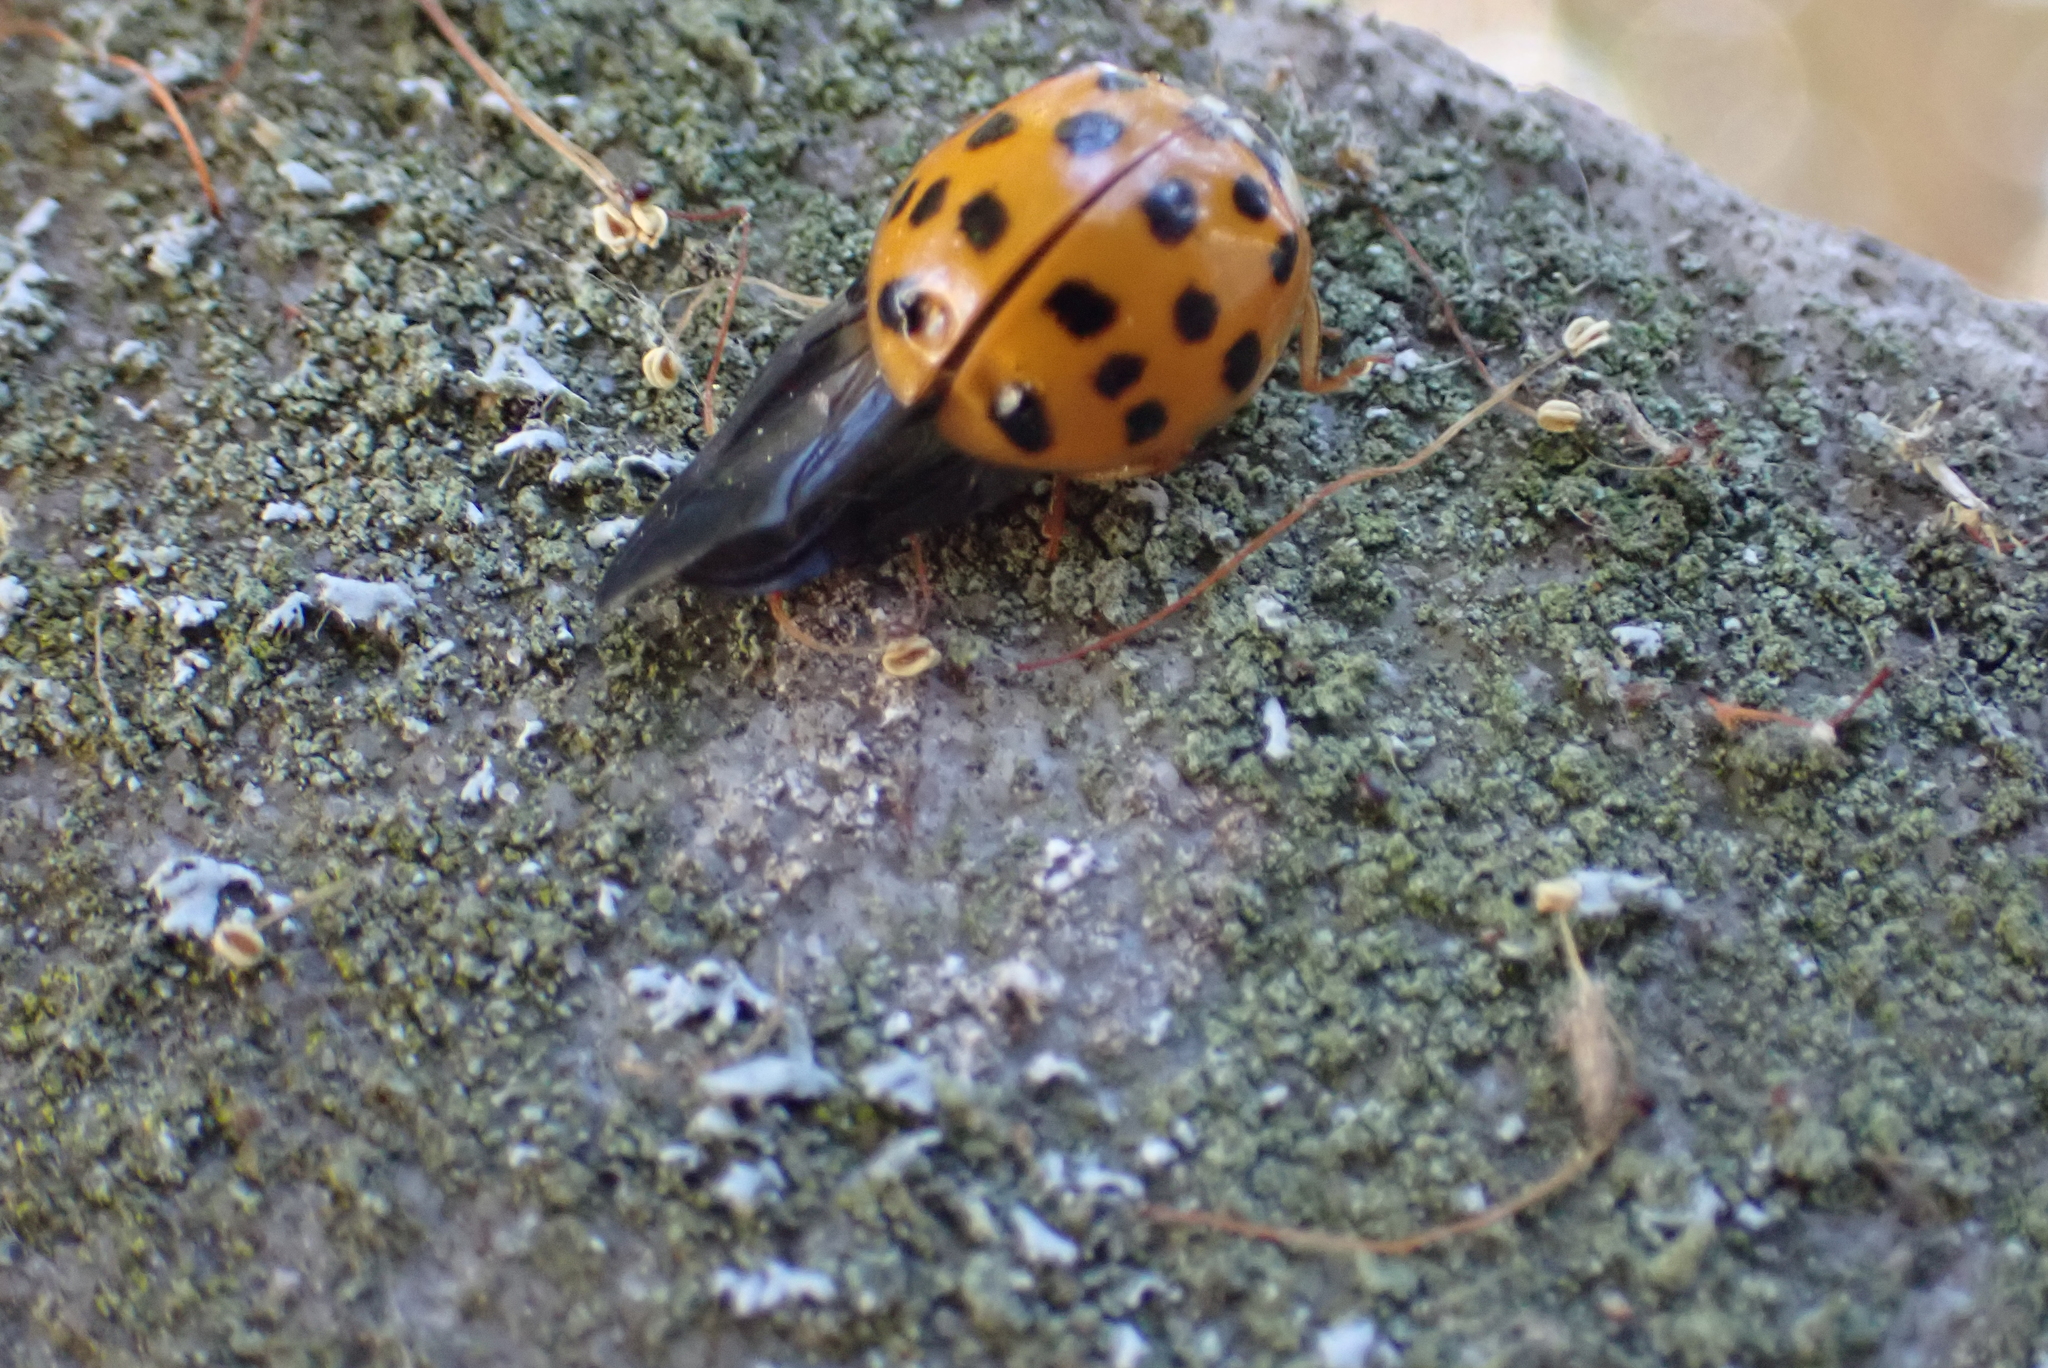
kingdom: Animalia
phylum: Arthropoda
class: Insecta
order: Coleoptera
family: Coccinellidae
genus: Harmonia
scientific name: Harmonia axyridis
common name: Harlequin ladybird
